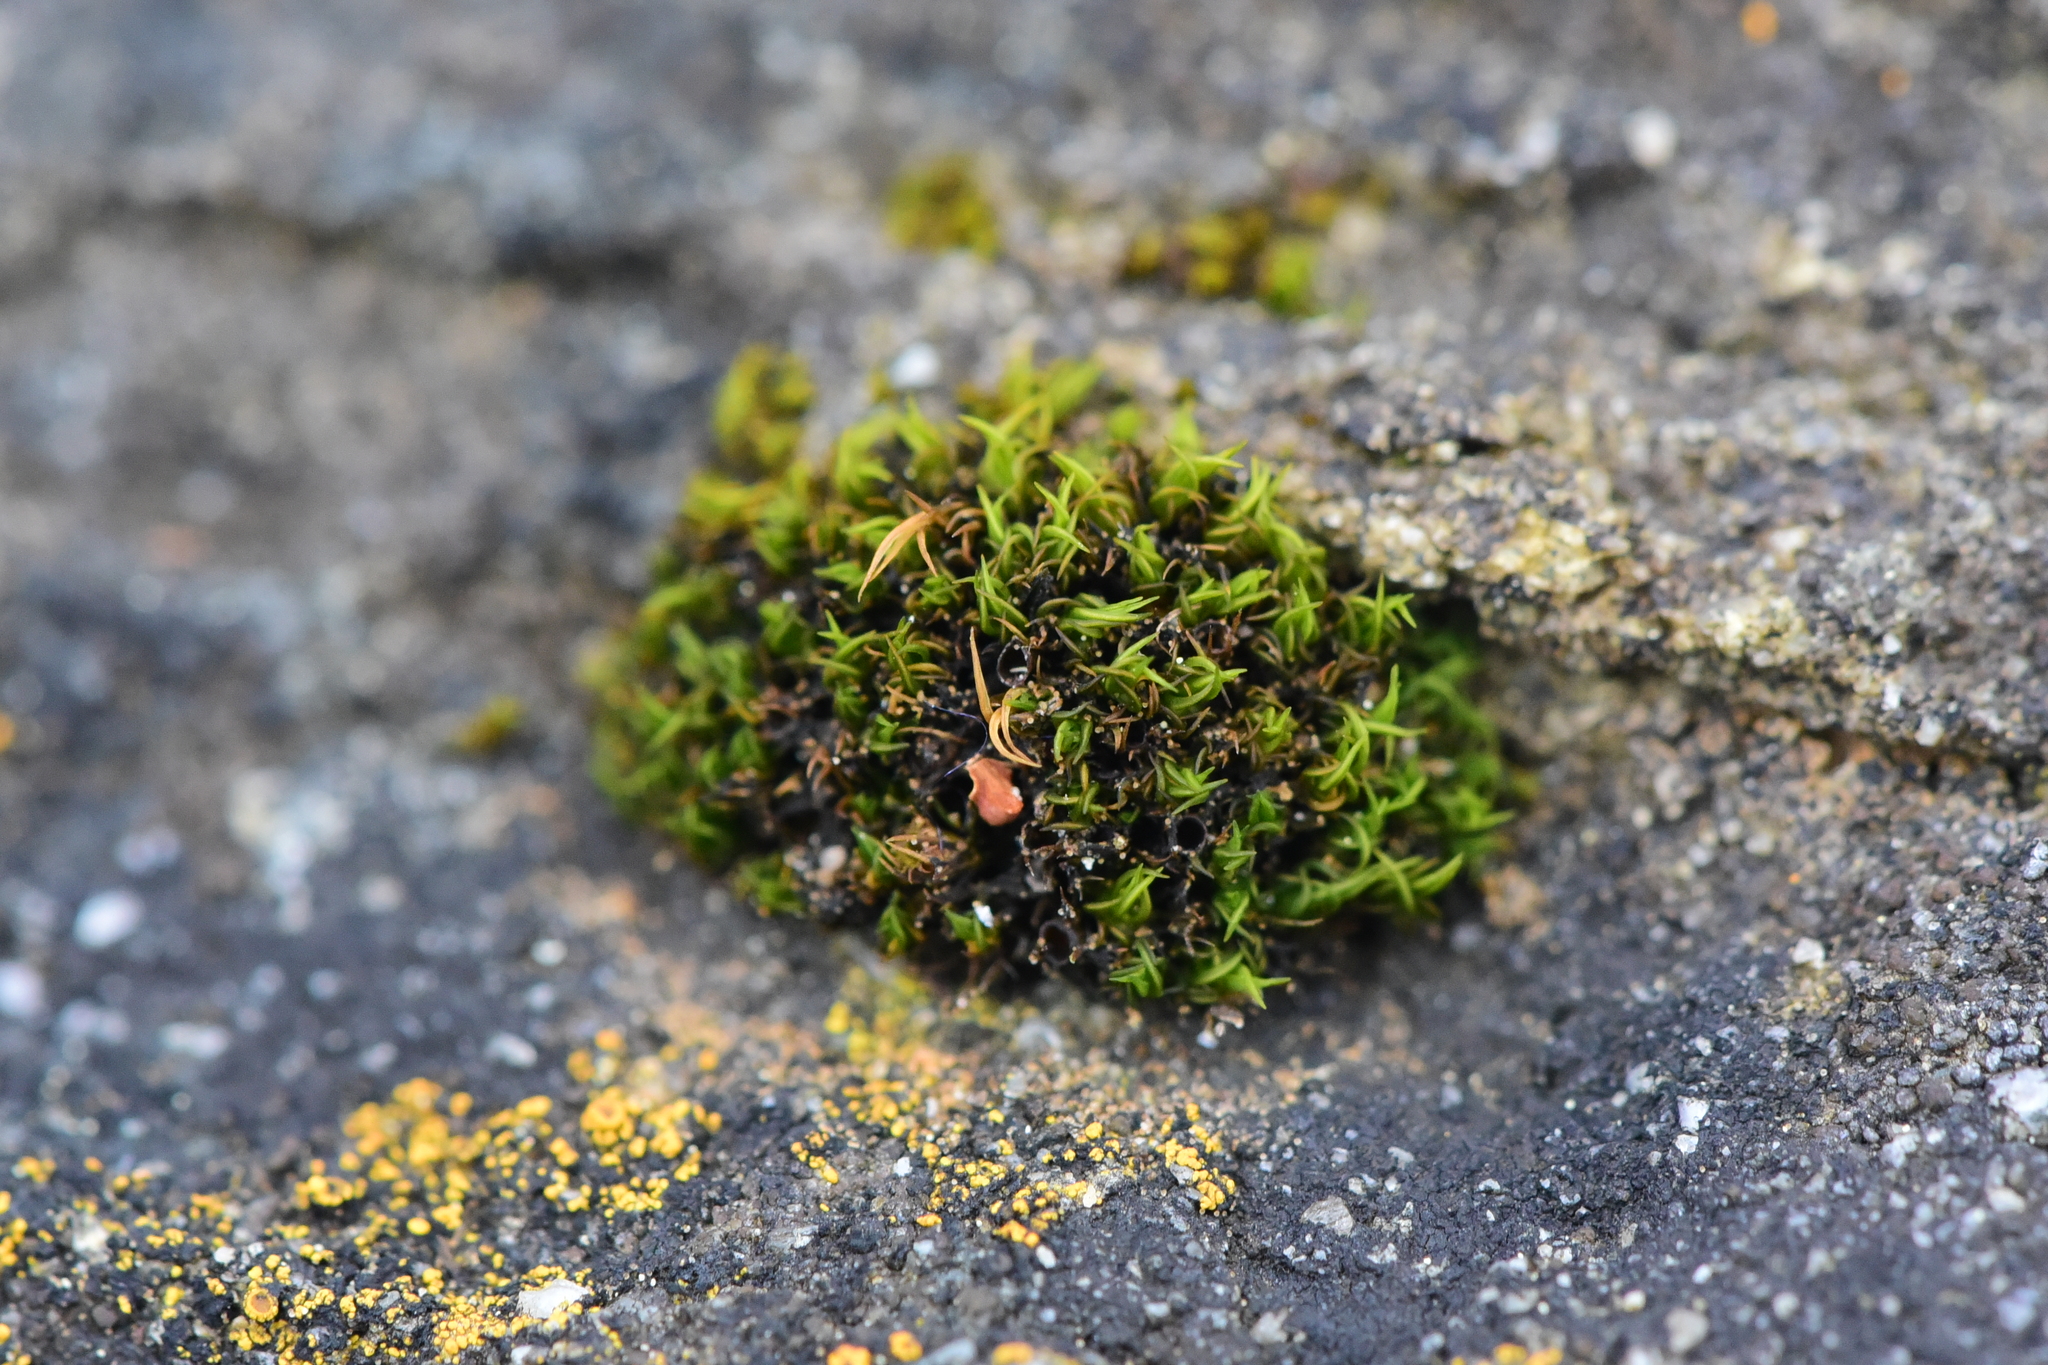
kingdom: Plantae
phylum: Bryophyta
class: Bryopsida
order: Grimmiales
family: Grimmiaceae
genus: Schistidium
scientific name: Schistidium maritimum
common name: Seaside bloom moss
